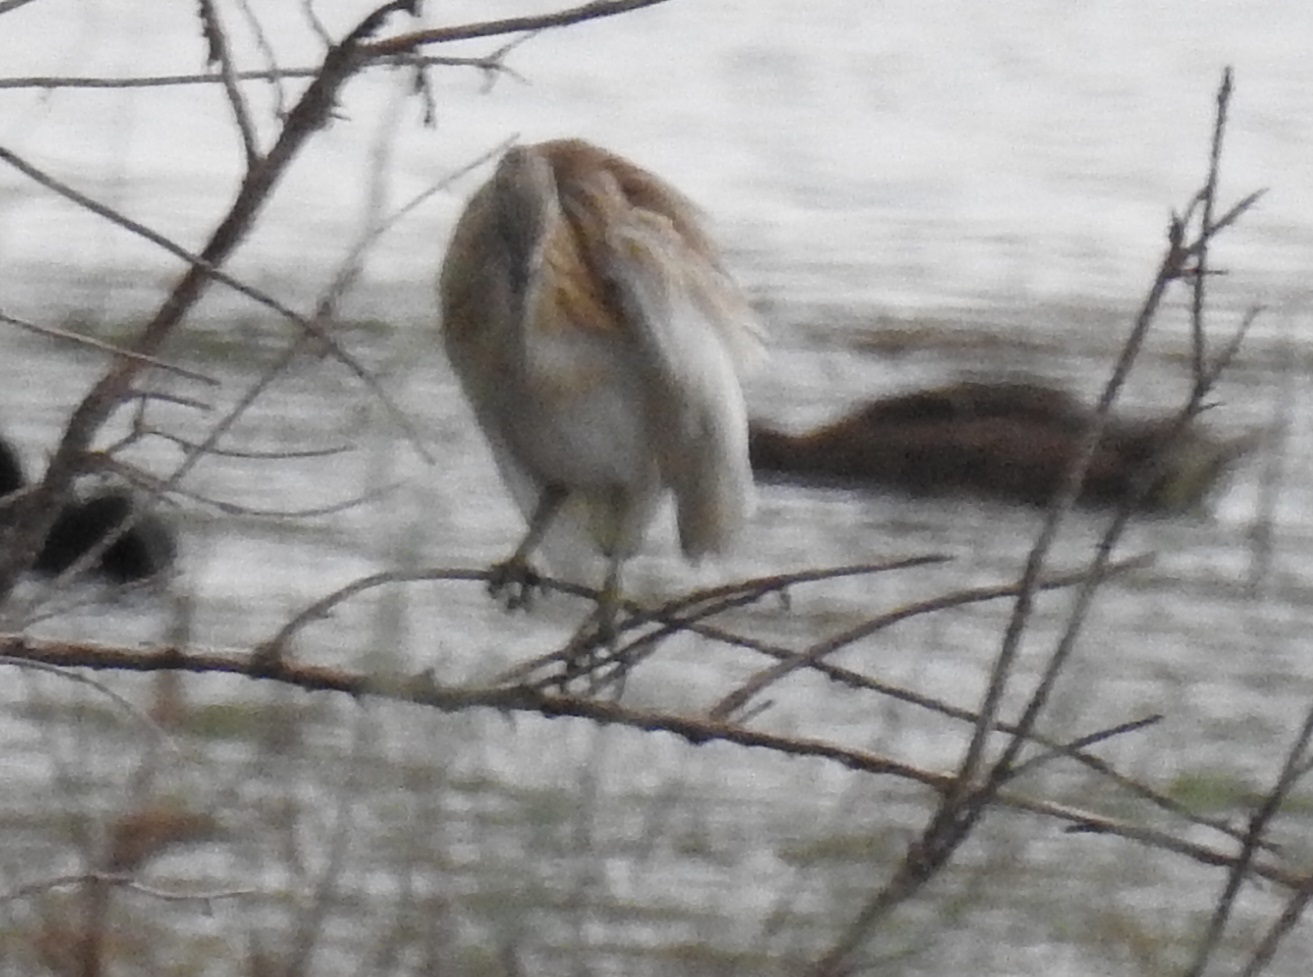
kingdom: Animalia
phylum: Chordata
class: Aves
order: Pelecaniformes
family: Ardeidae
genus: Ardeola
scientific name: Ardeola ralloides
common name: Squacco heron
